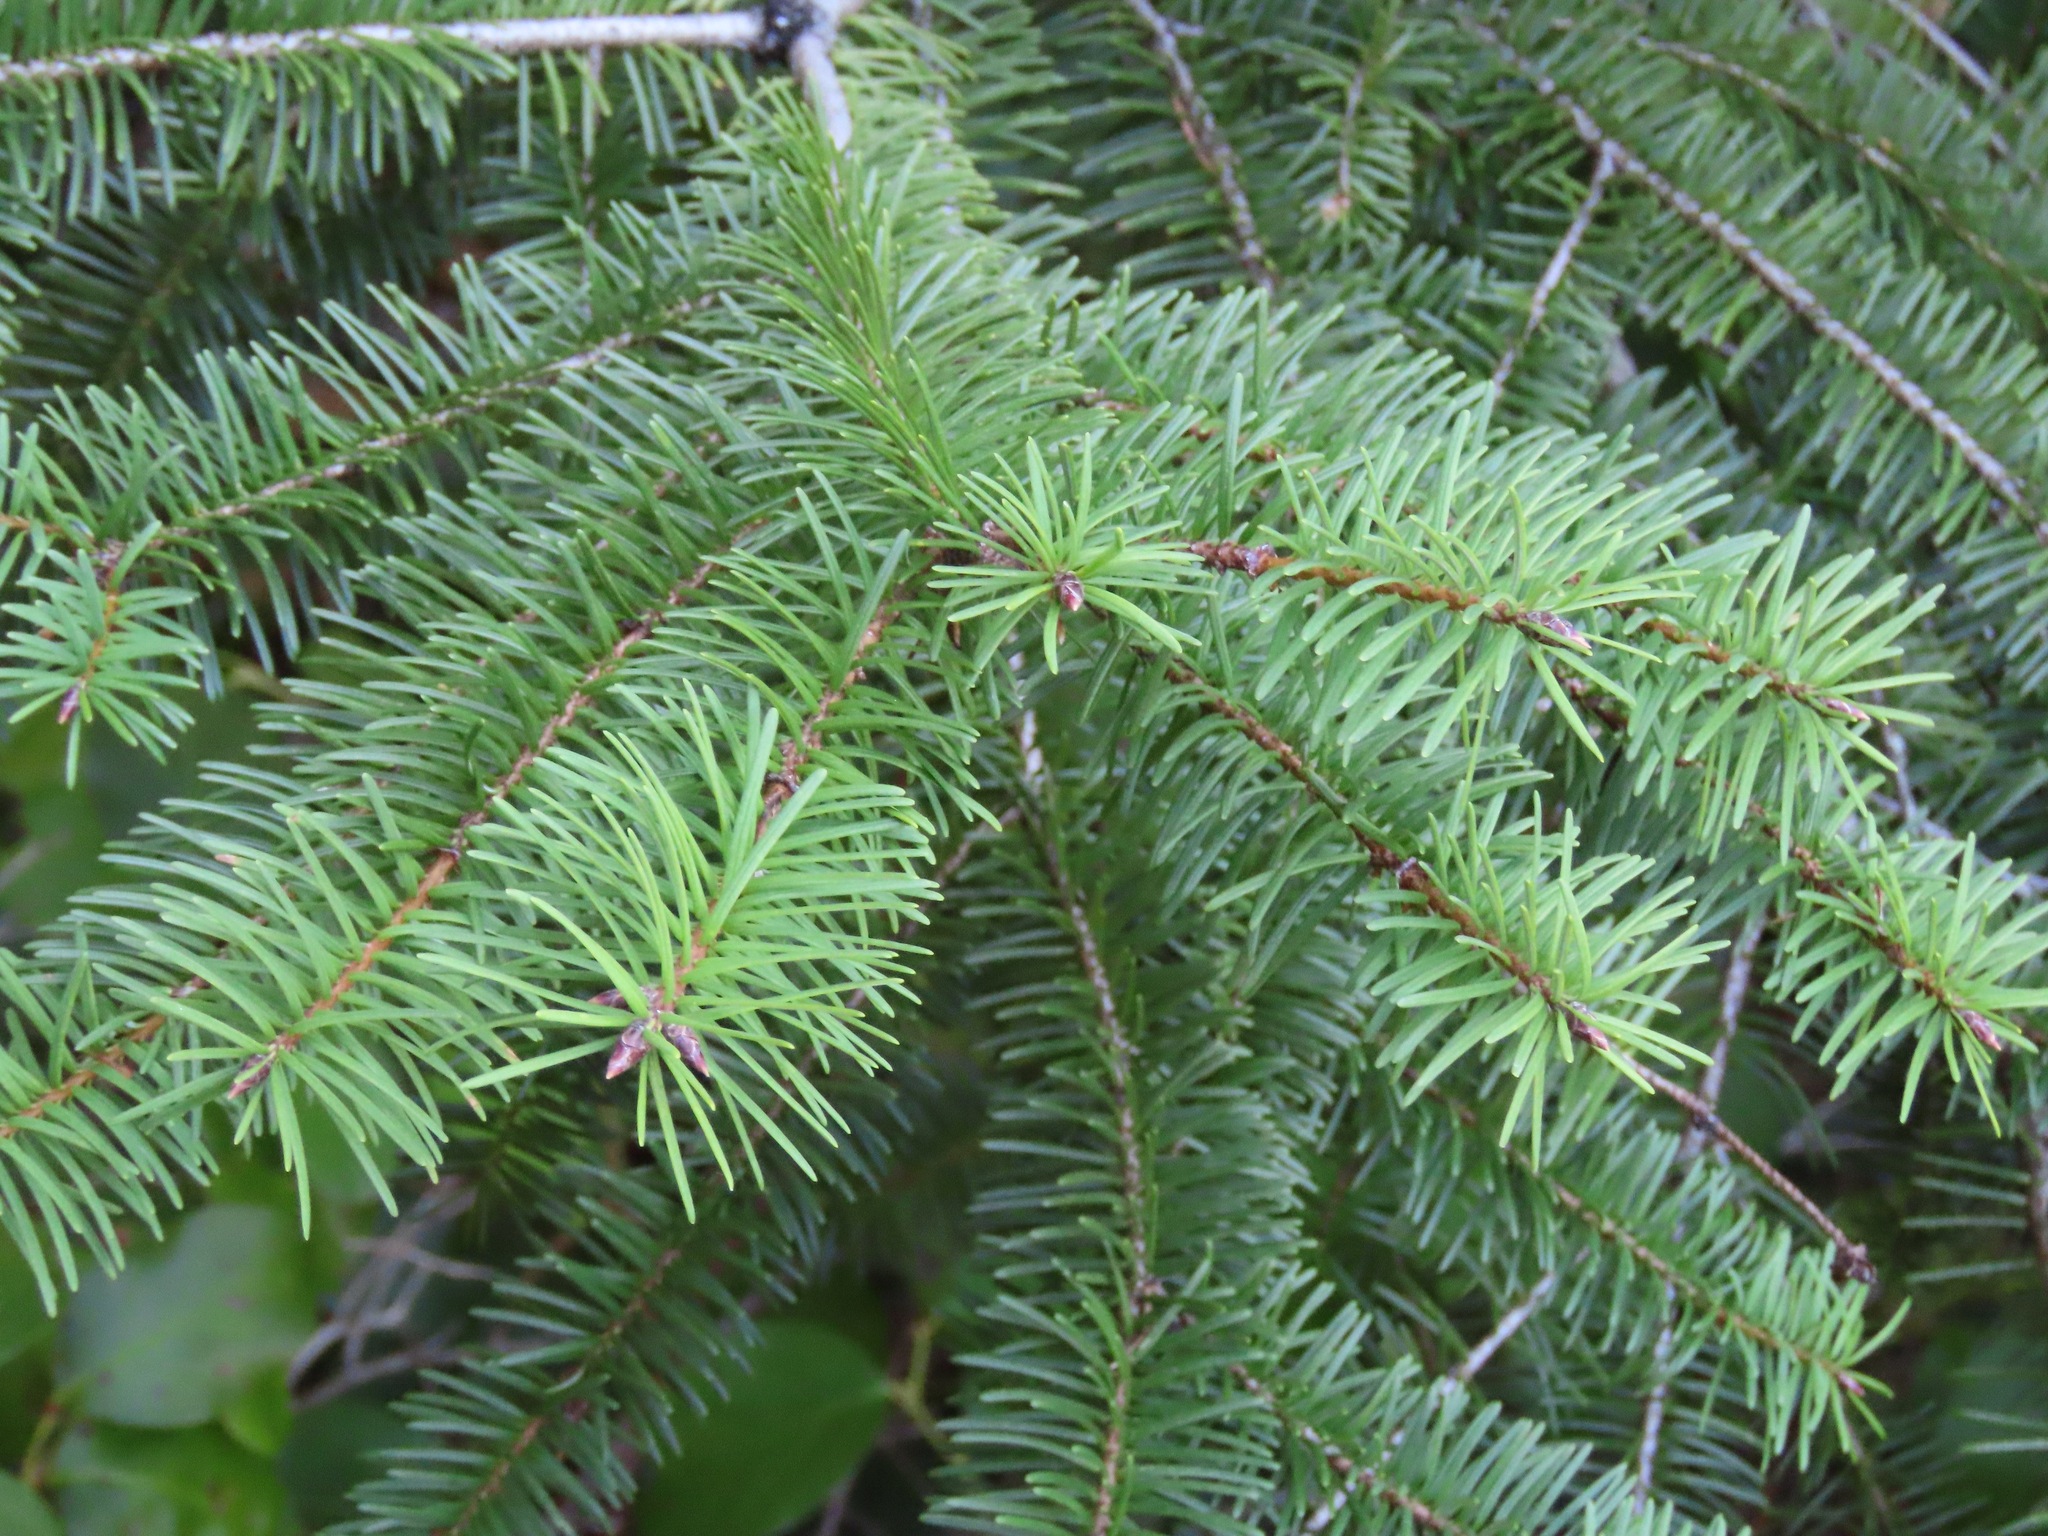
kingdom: Plantae
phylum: Tracheophyta
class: Pinopsida
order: Pinales
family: Pinaceae
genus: Pseudotsuga
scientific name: Pseudotsuga menziesii
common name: Douglas fir
